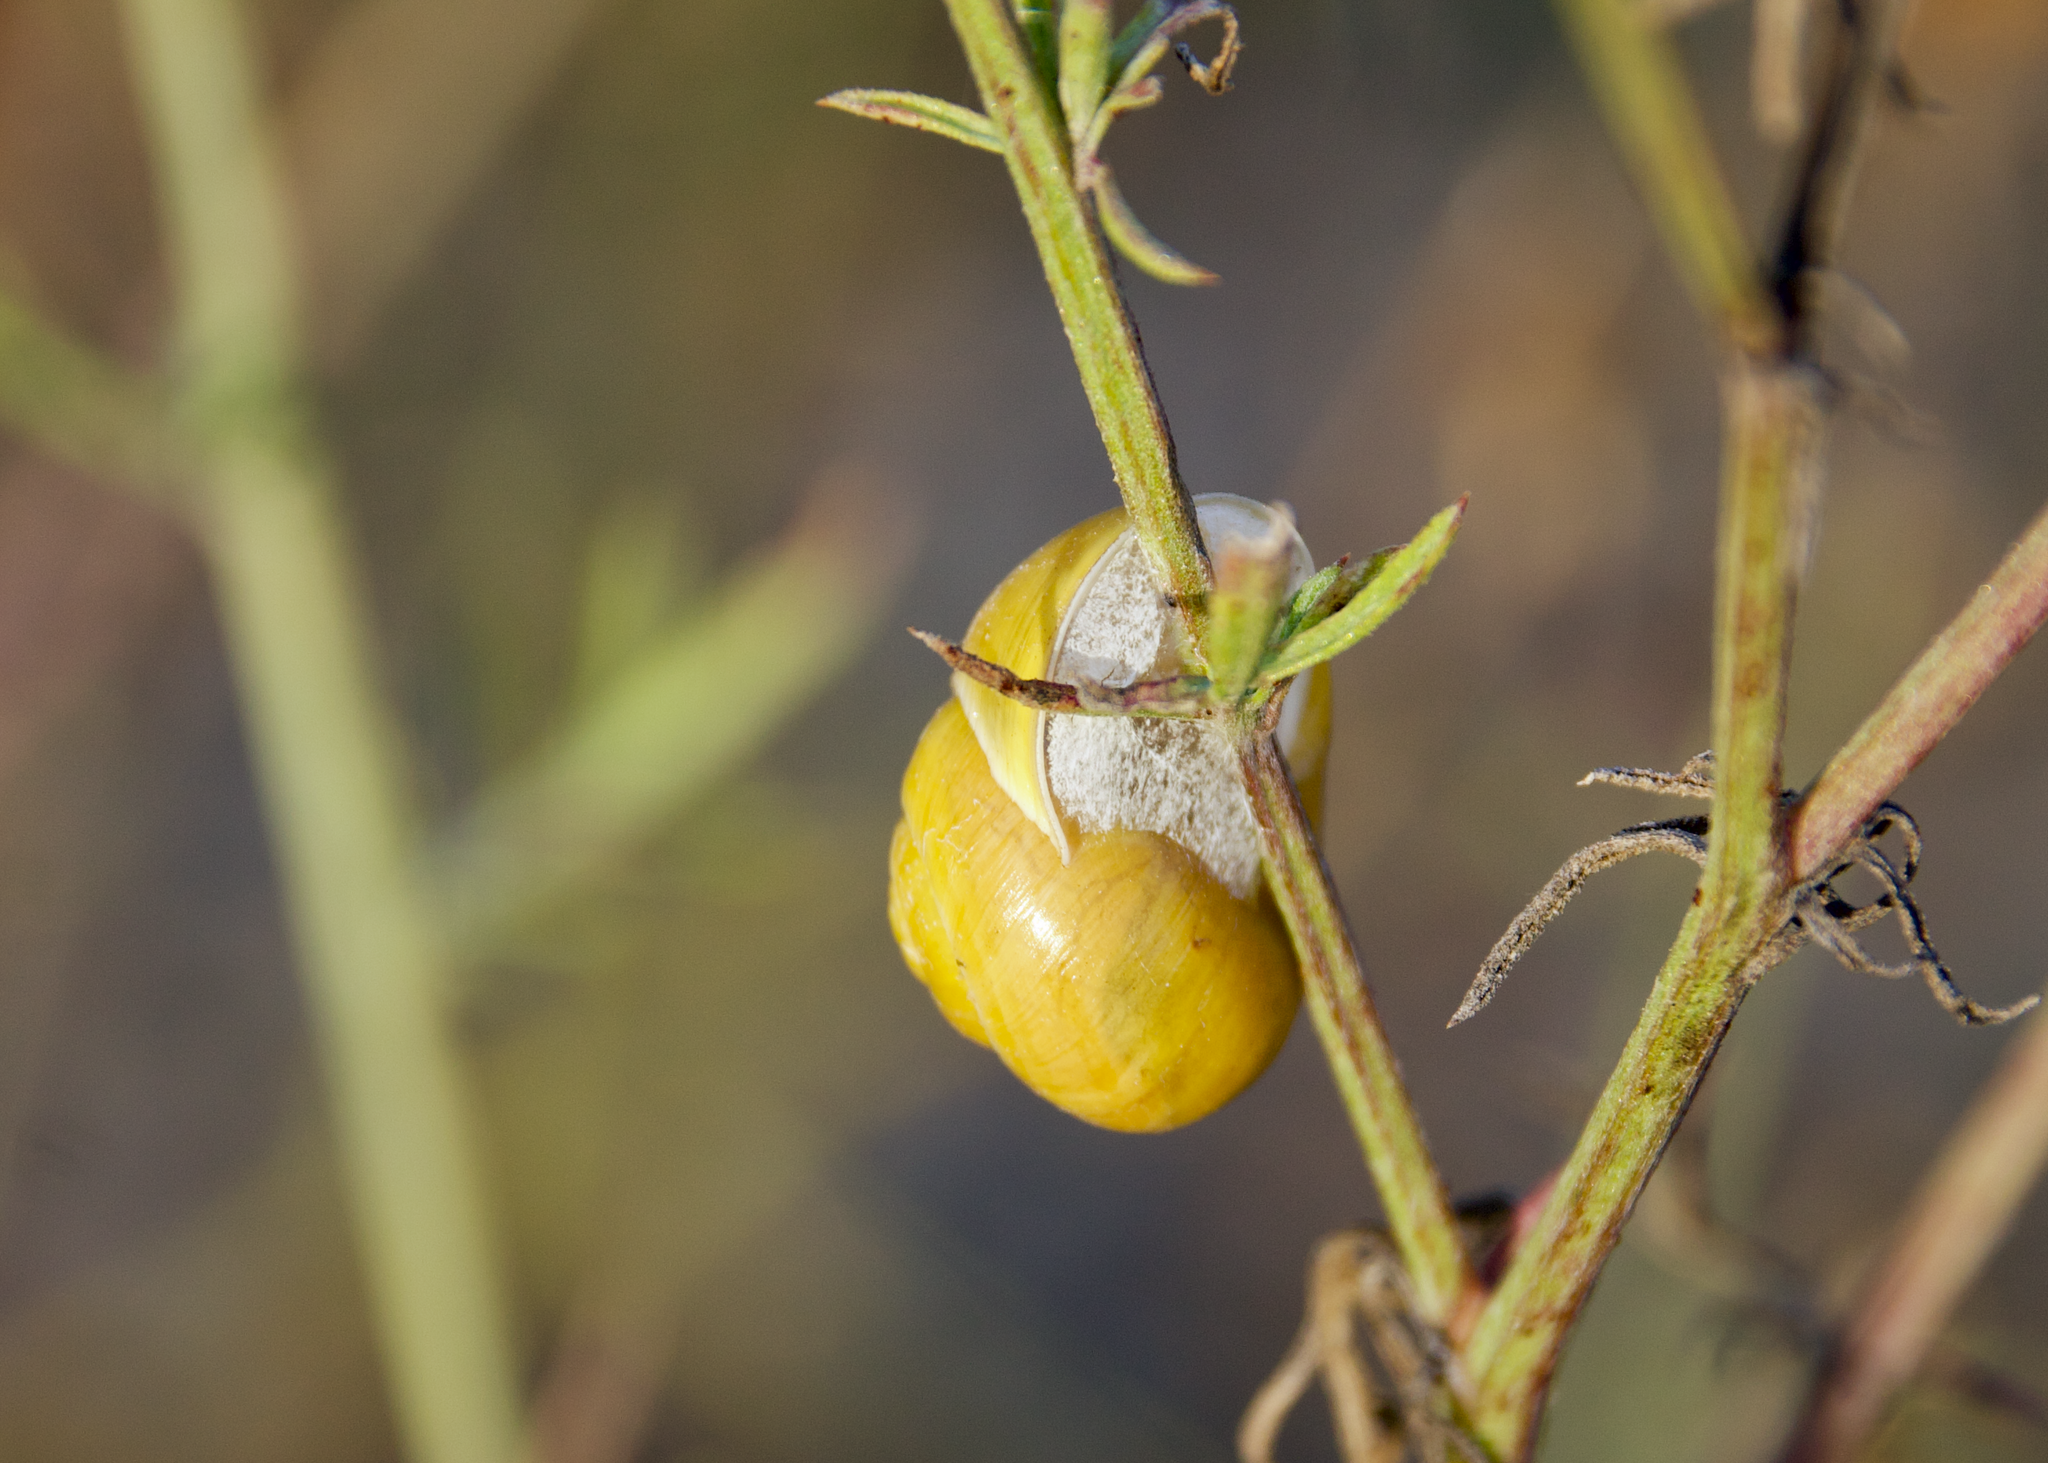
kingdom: Animalia
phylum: Mollusca
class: Gastropoda
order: Stylommatophora
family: Helicidae
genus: Cepaea
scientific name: Cepaea hortensis
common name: White-lip gardensnail
